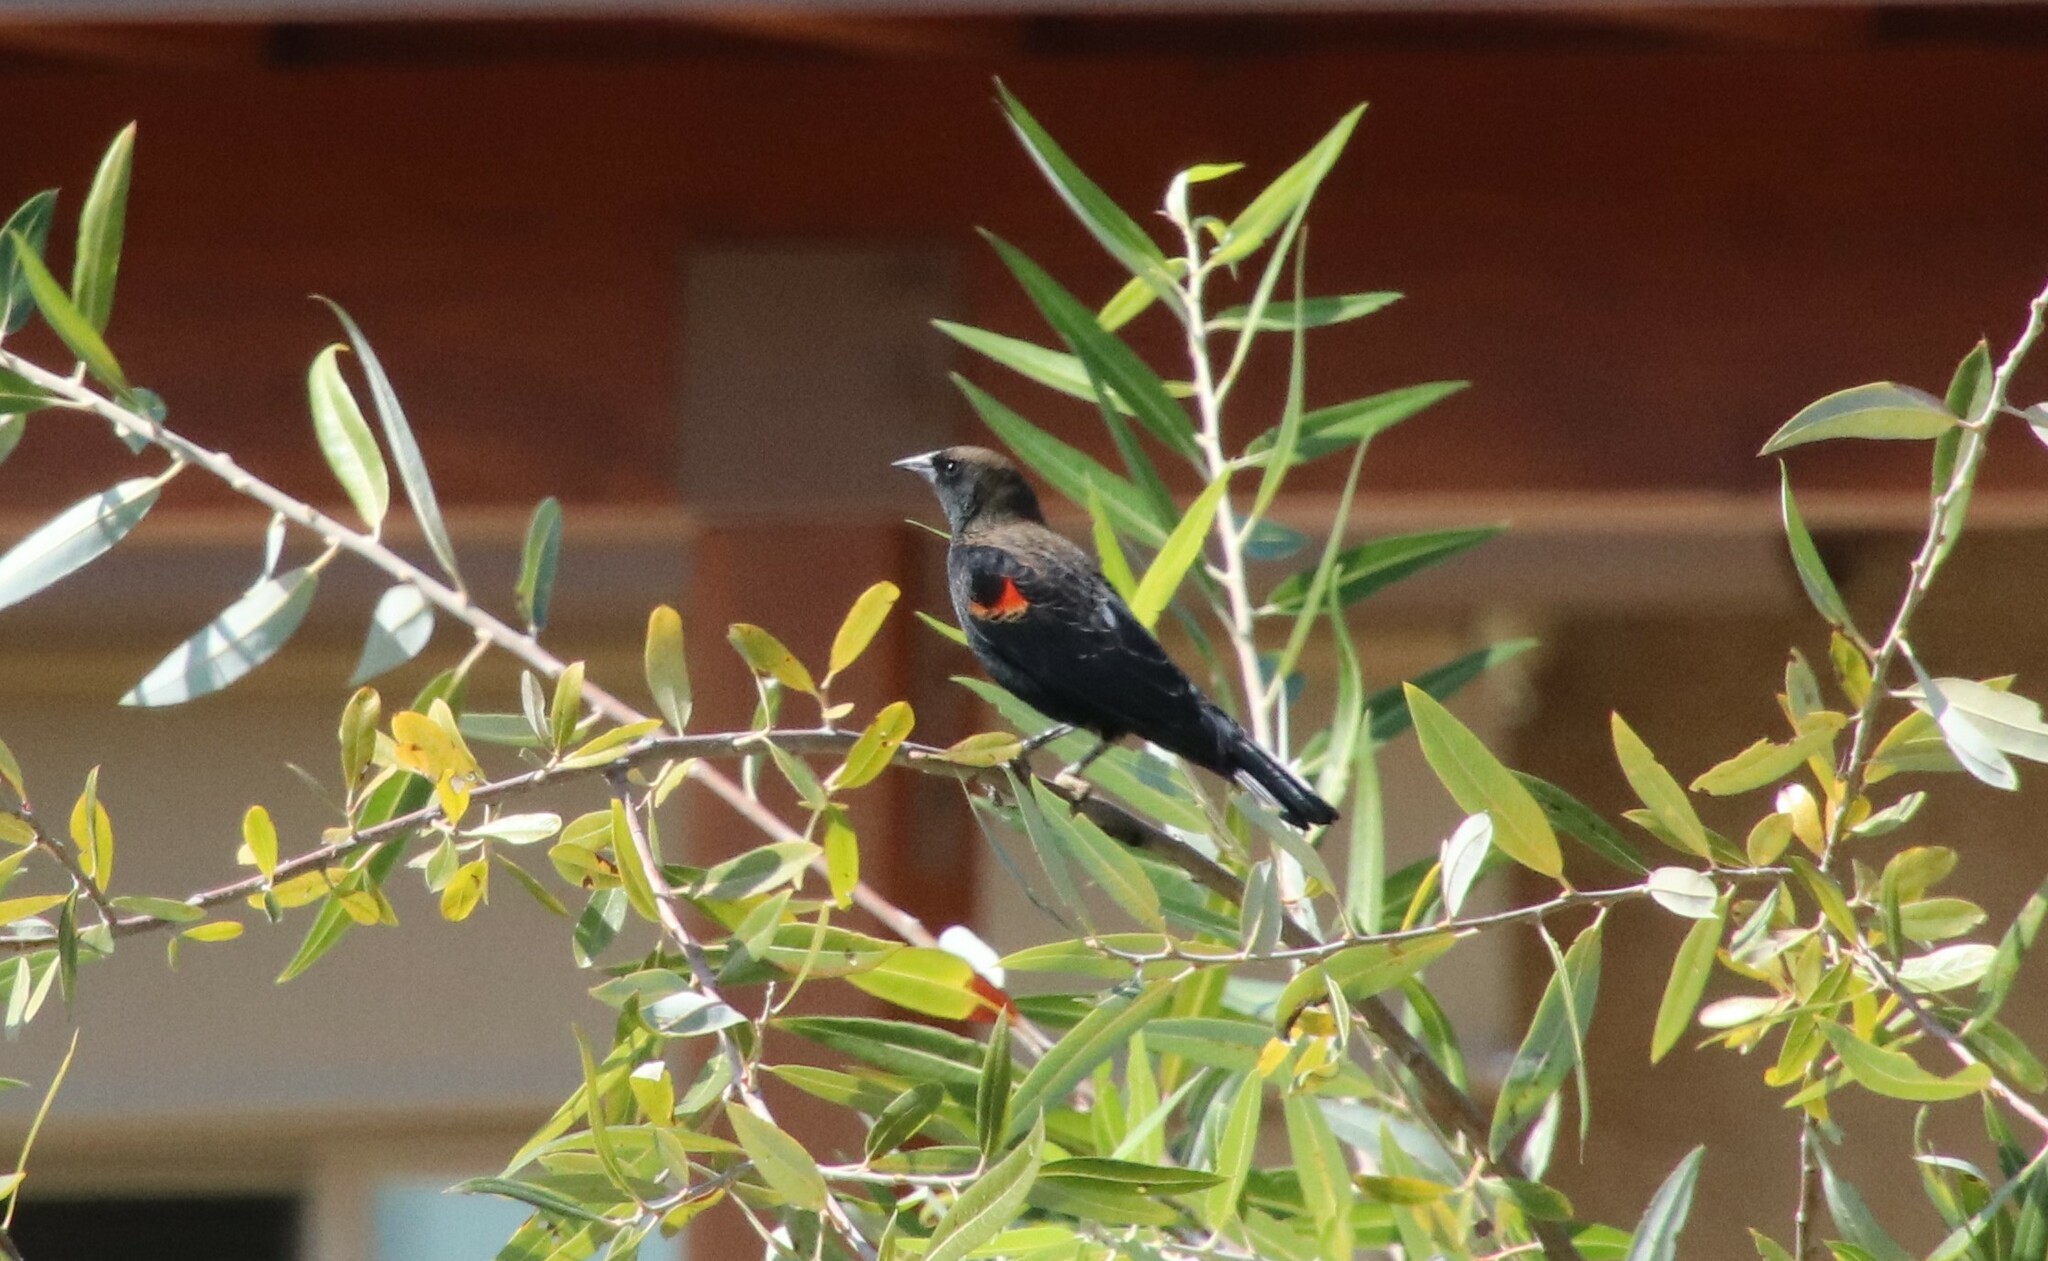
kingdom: Animalia
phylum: Chordata
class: Aves
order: Passeriformes
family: Icteridae
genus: Agelaius
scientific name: Agelaius phoeniceus
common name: Red-winged blackbird
